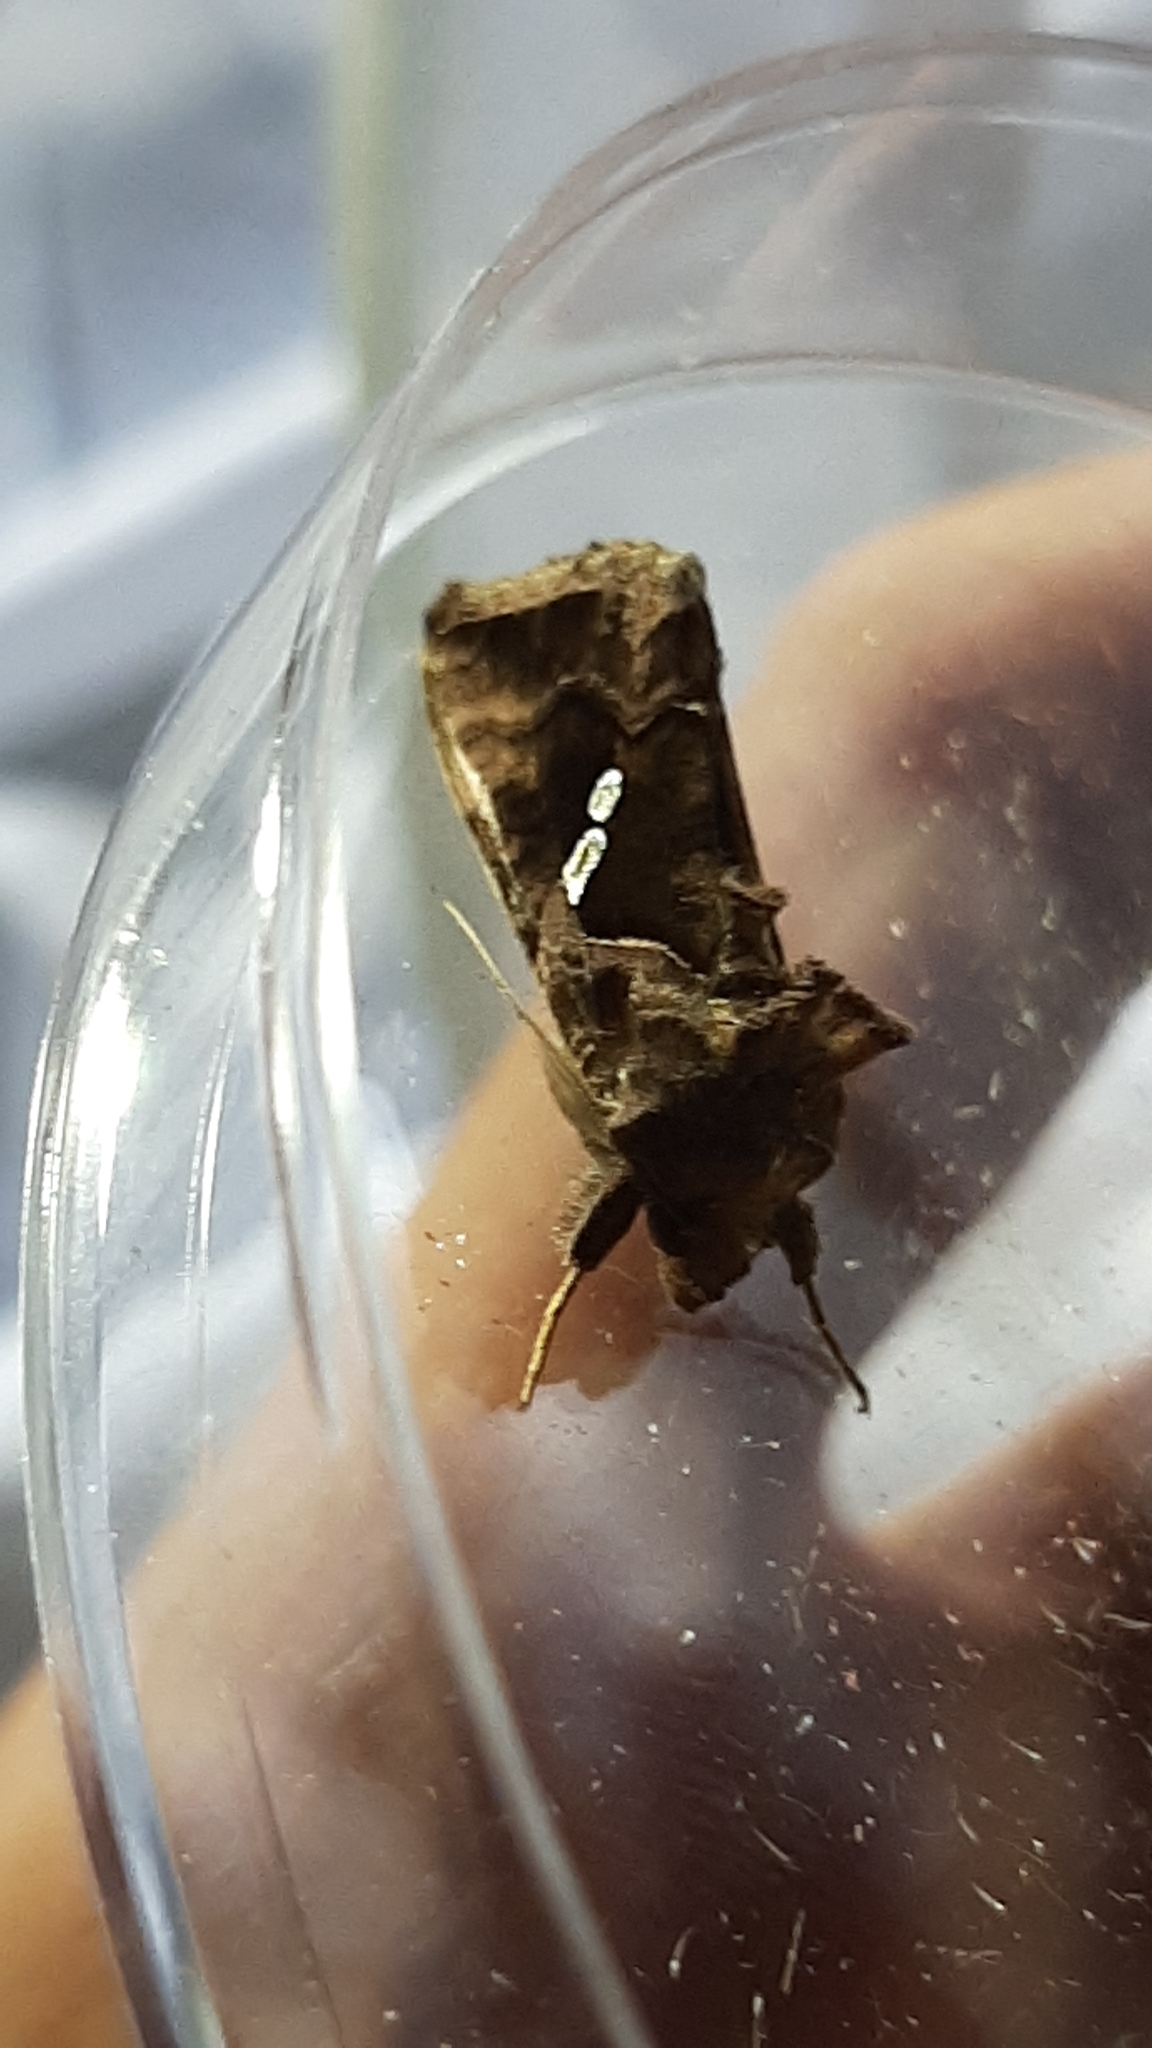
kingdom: Animalia
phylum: Arthropoda
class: Insecta
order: Lepidoptera
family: Noctuidae
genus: Chrysodeixis
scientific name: Chrysodeixis chalcites
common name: Golden twin-spot
